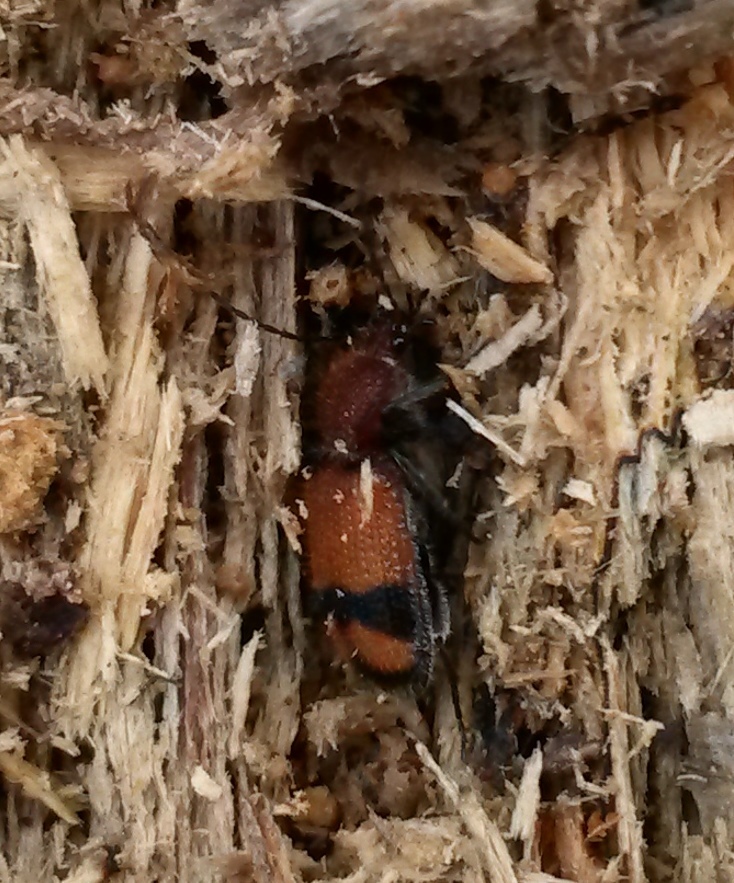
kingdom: Animalia
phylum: Arthropoda
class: Insecta
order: Coleoptera
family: Carabidae
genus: Panagaeus
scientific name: Panagaeus fasciatus
